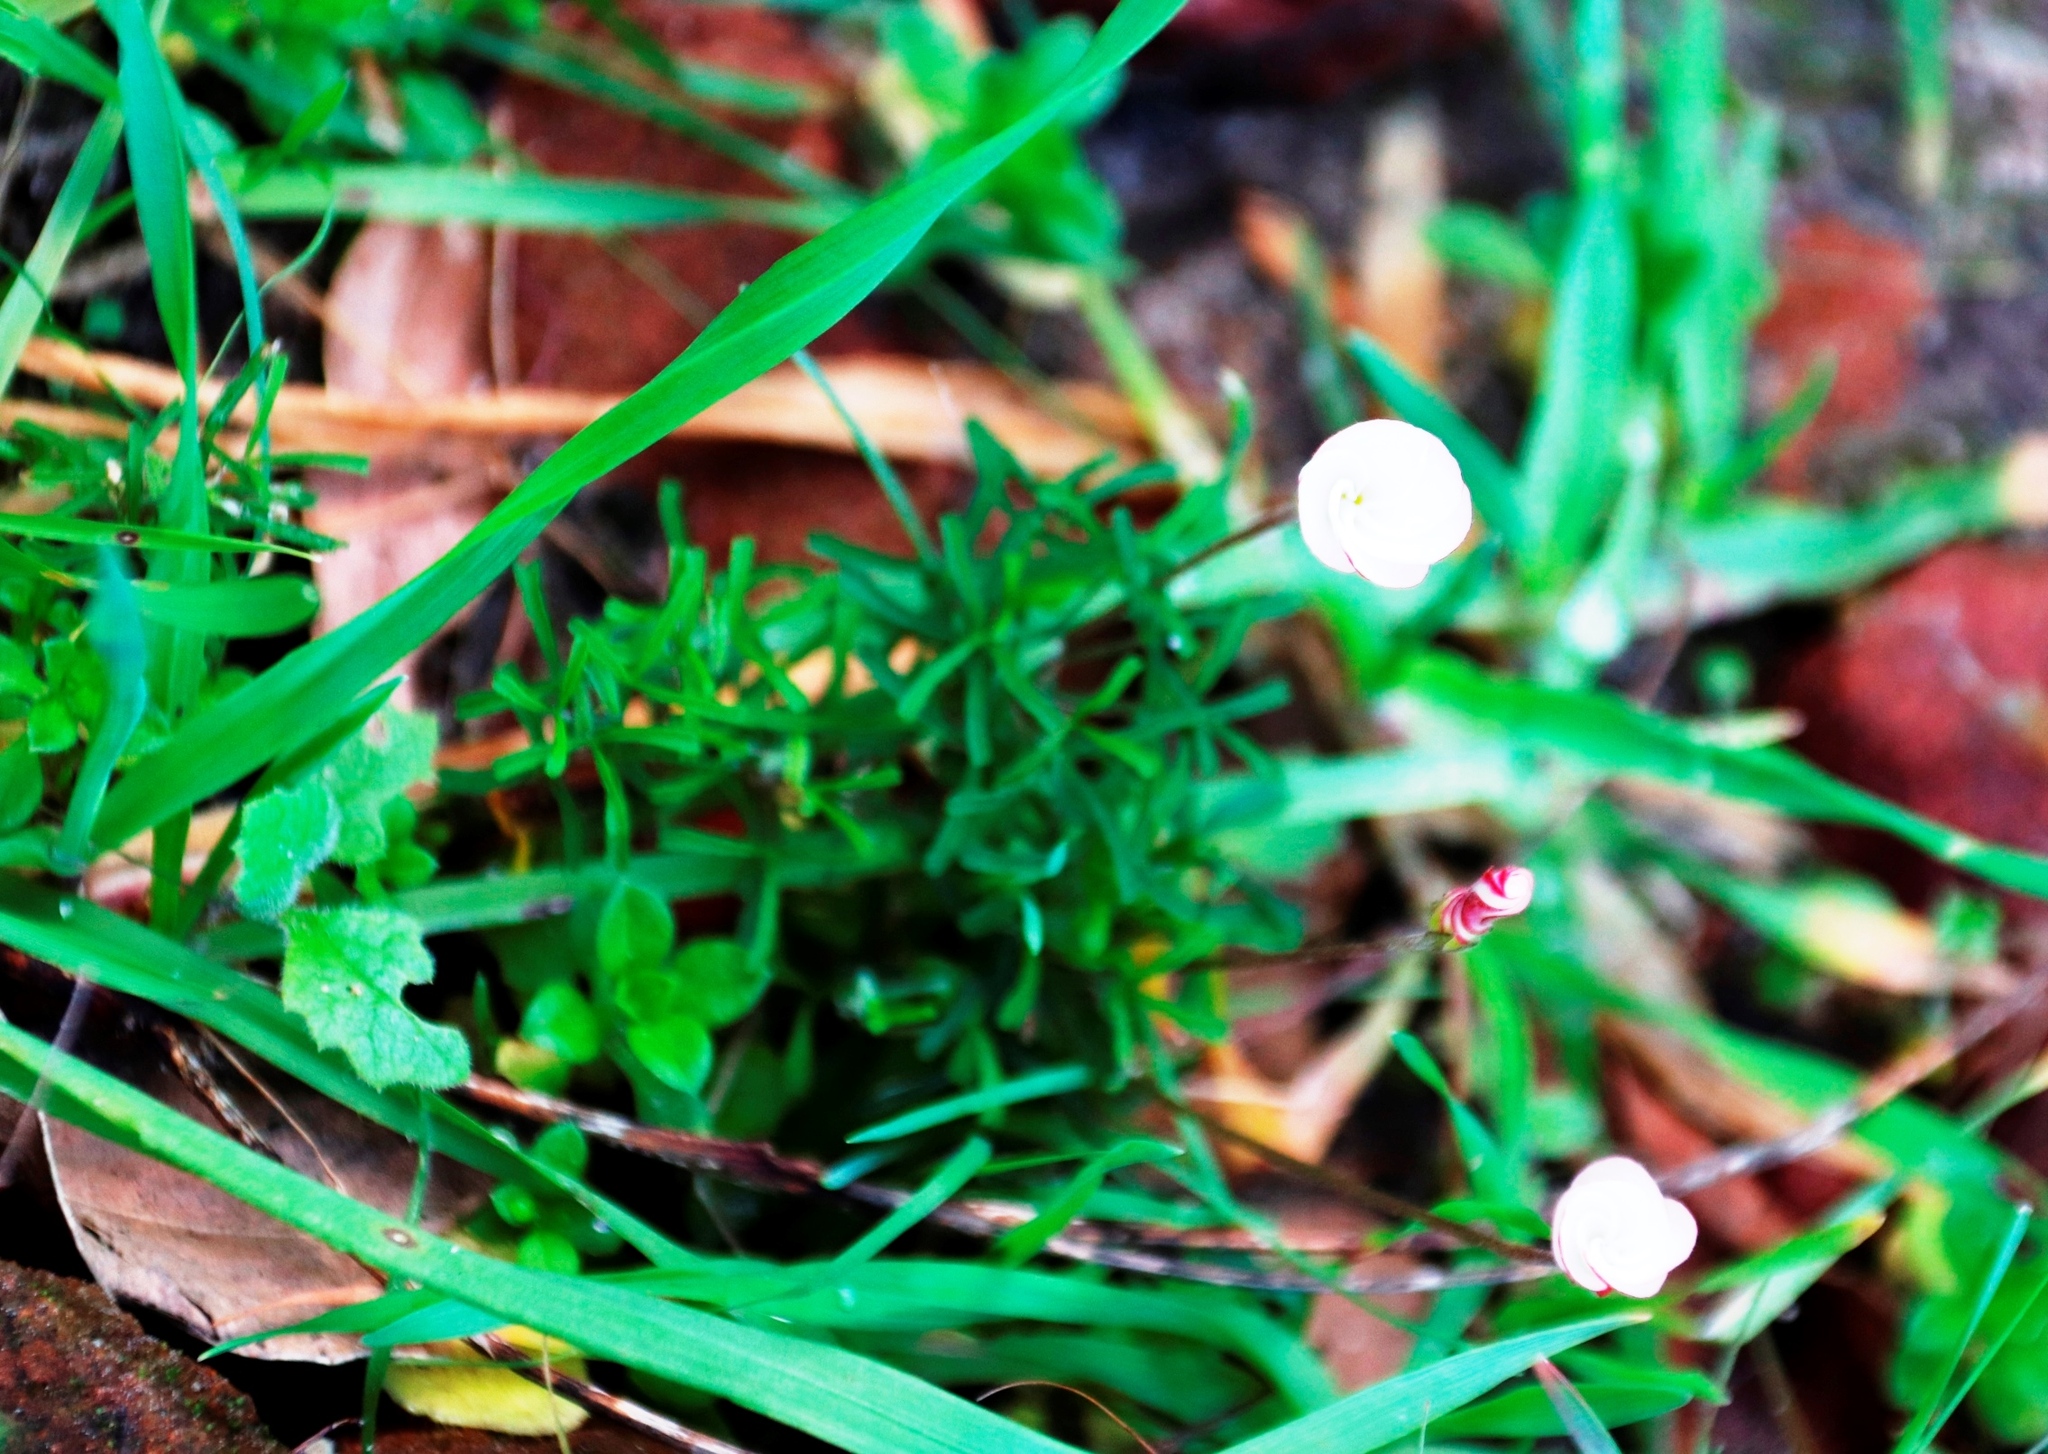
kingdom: Plantae
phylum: Tracheophyta
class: Magnoliopsida
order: Oxalidales
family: Oxalidaceae
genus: Oxalis
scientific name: Oxalis versicolor
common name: Peppermint rock oxalis
